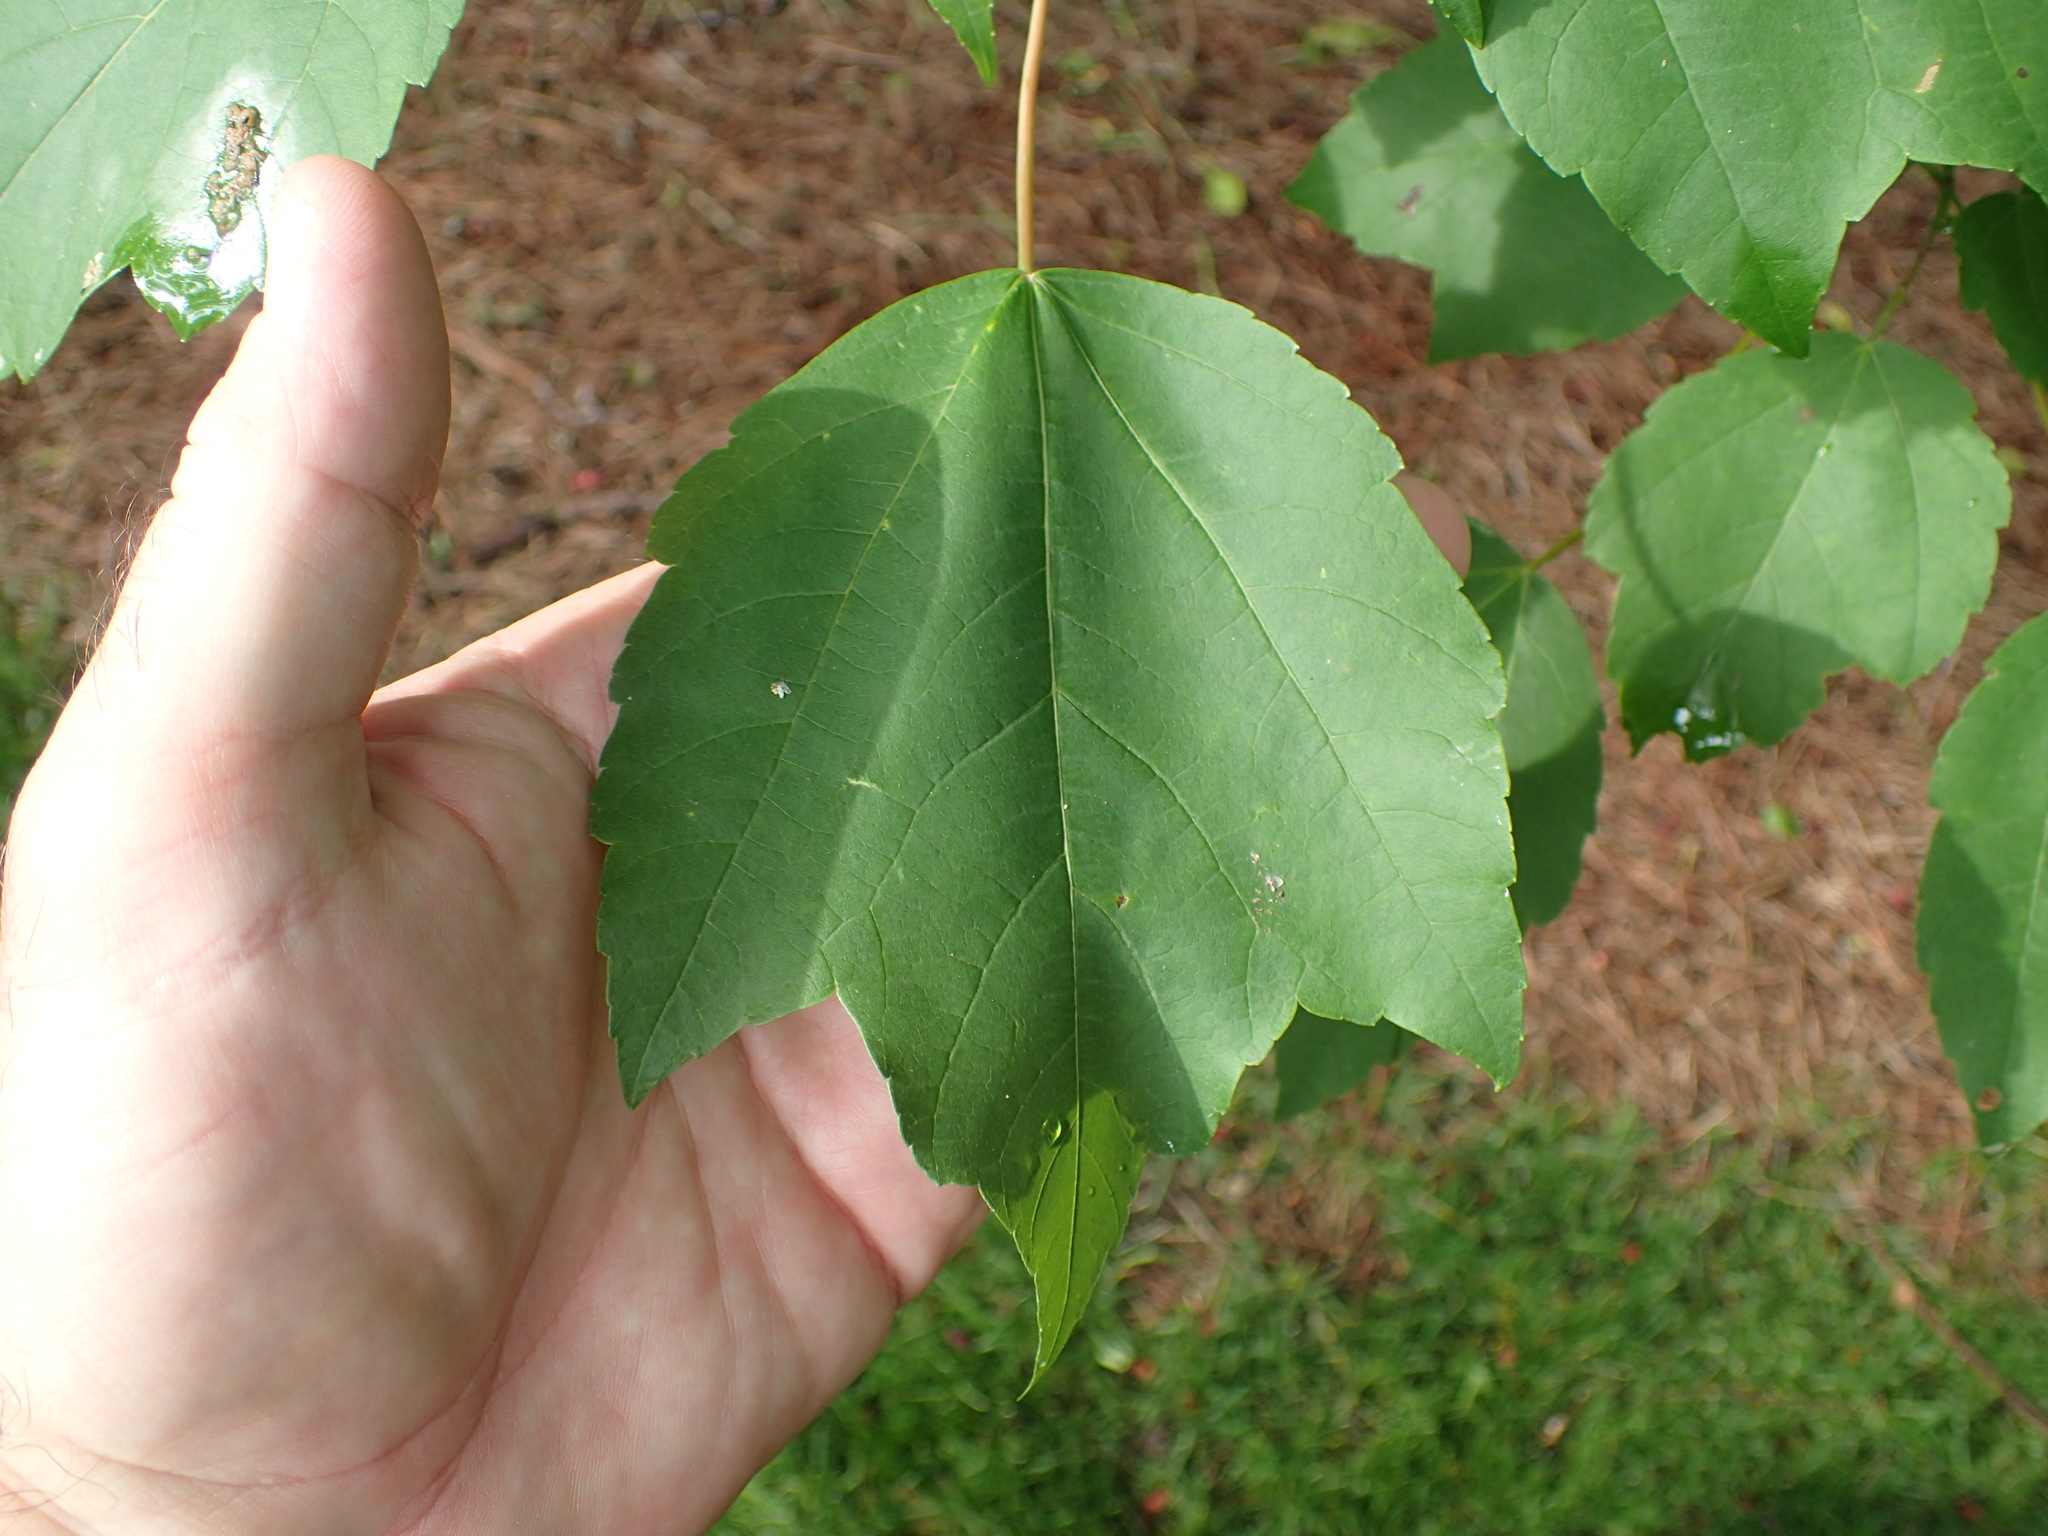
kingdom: Plantae
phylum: Tracheophyta
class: Magnoliopsida
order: Sapindales
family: Sapindaceae
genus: Acer
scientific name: Acer rubrum
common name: Red maple
